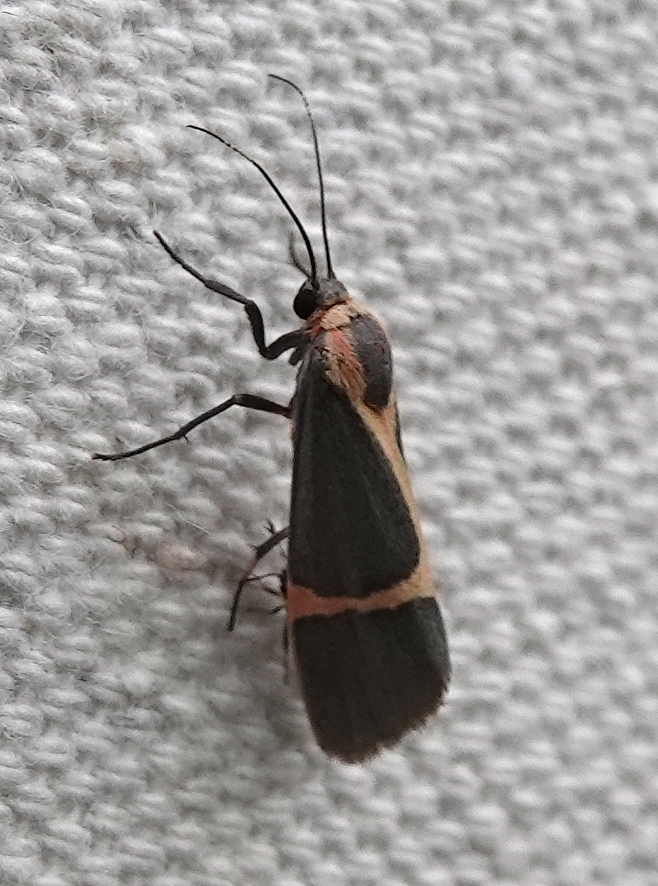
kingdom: Animalia
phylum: Arthropoda
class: Insecta
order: Lepidoptera
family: Erebidae
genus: Cisthene
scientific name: Cisthene barnesii
